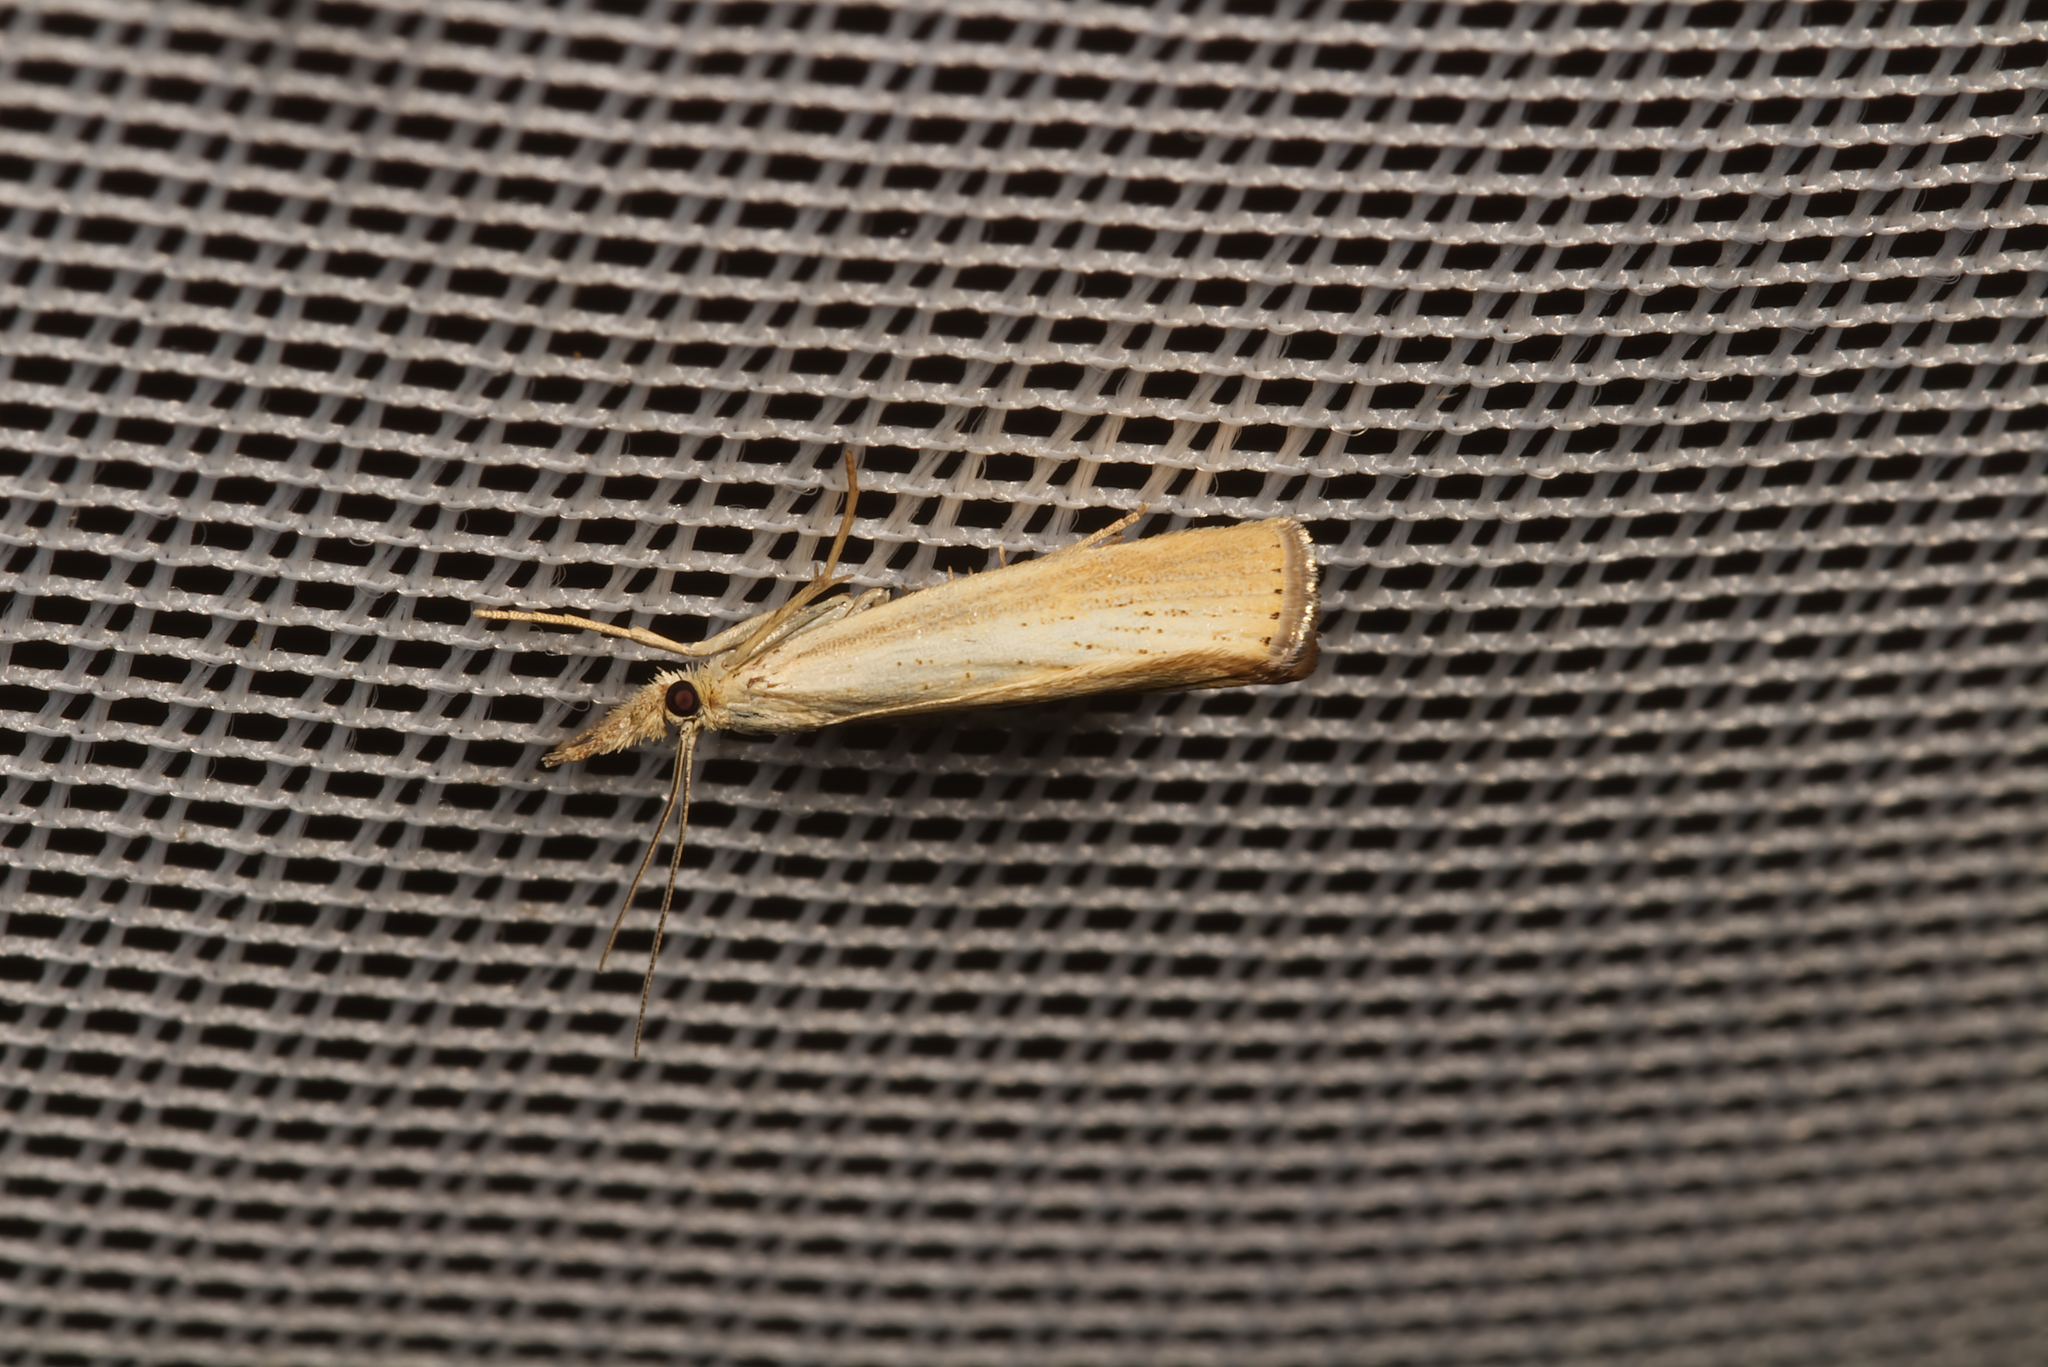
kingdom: Animalia
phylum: Arthropoda
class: Insecta
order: Lepidoptera
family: Crambidae
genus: Agriphila
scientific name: Agriphila straminella
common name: Straw grass-veneer
